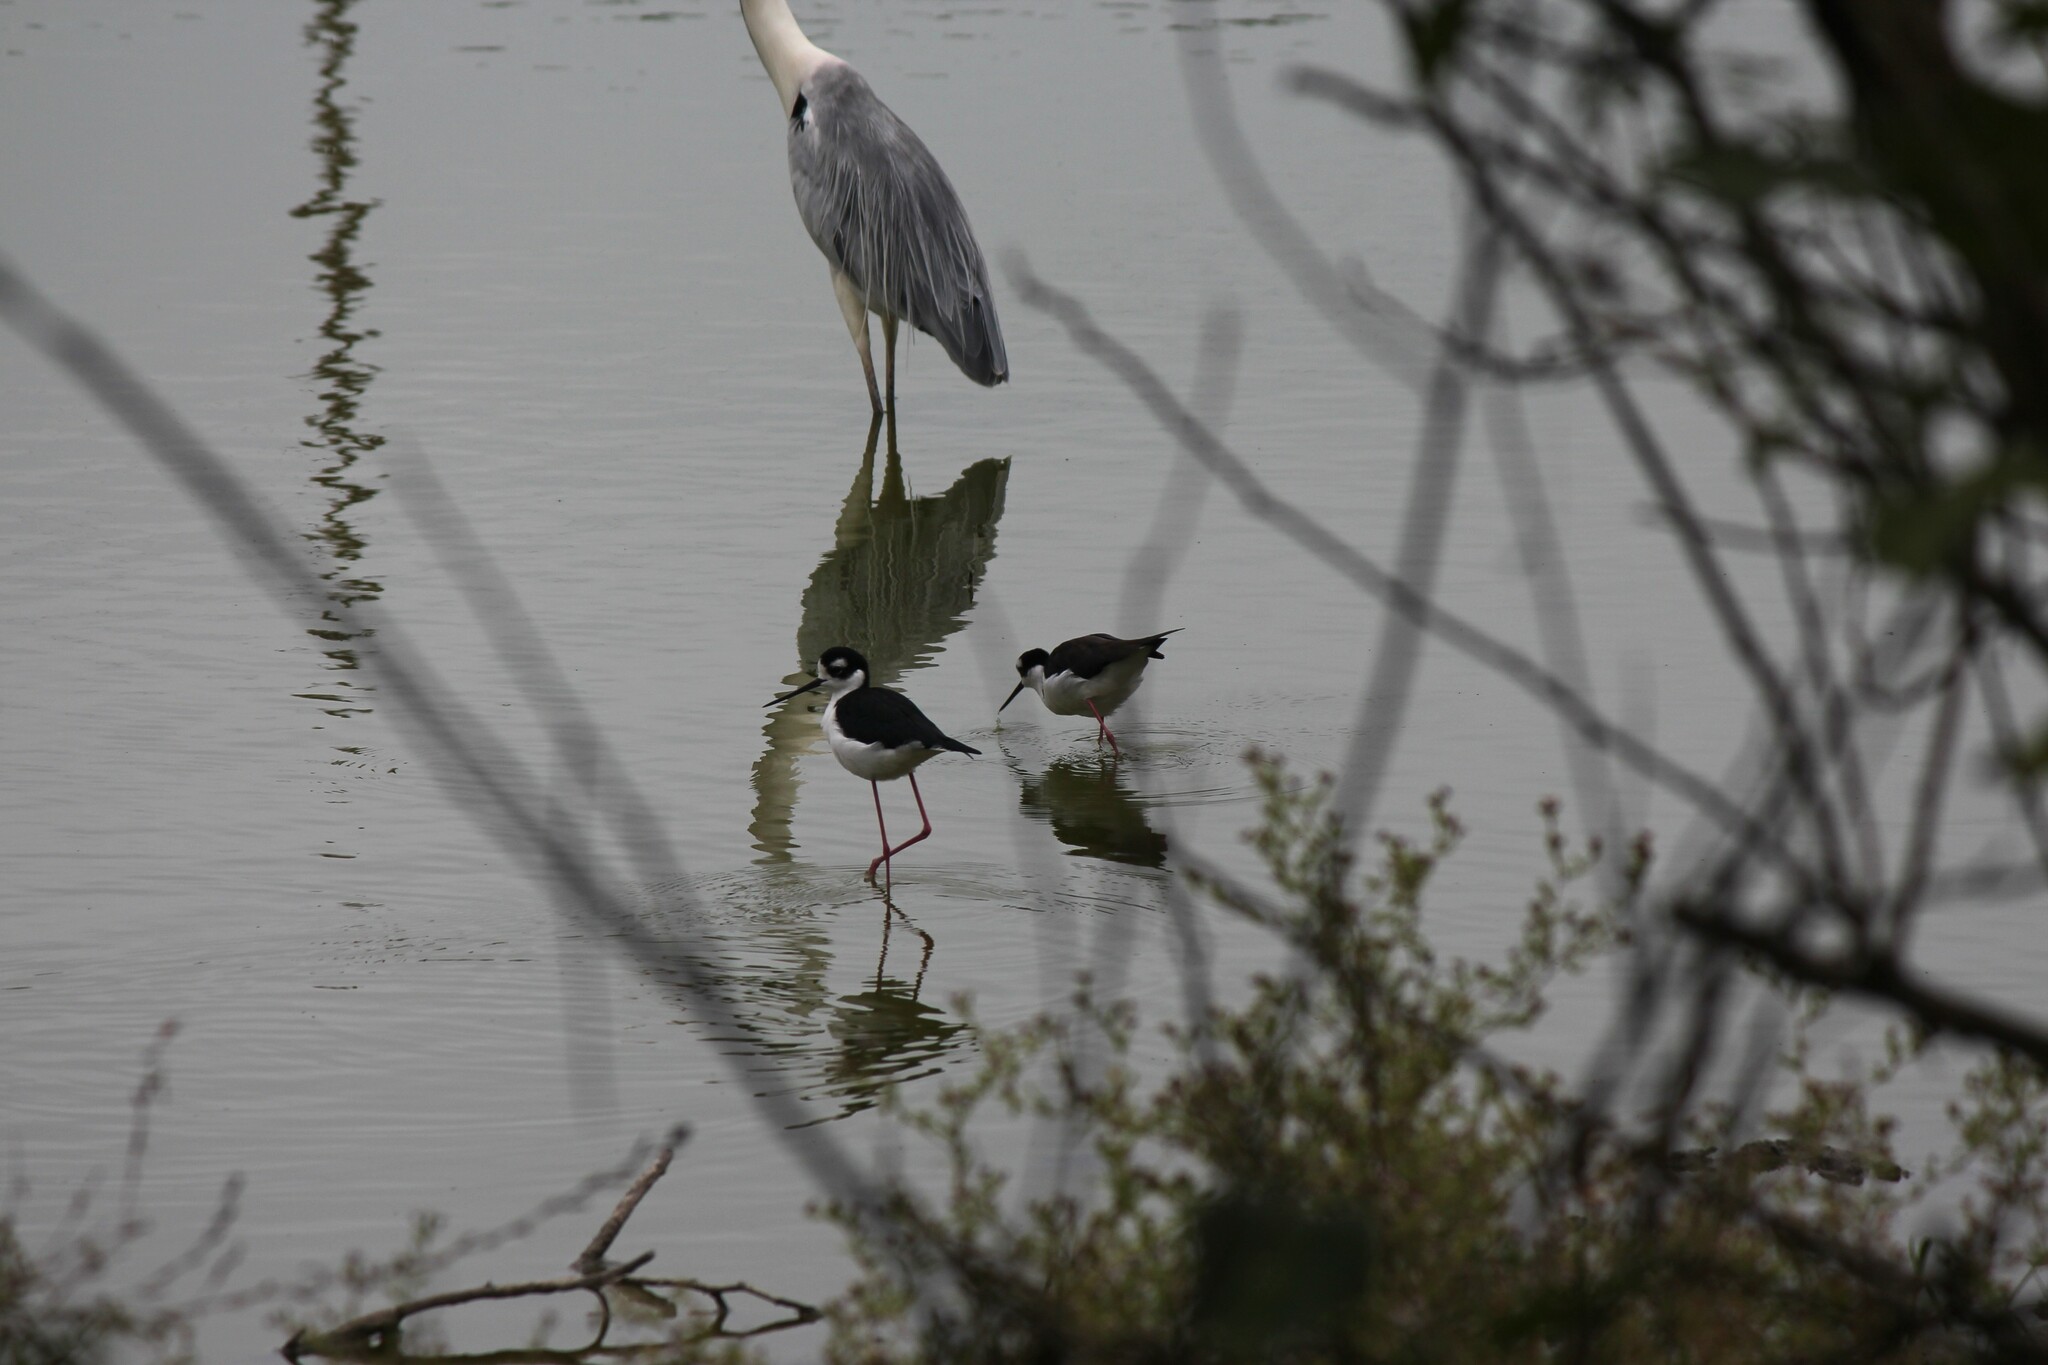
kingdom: Animalia
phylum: Chordata
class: Aves
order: Charadriiformes
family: Recurvirostridae
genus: Himantopus
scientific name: Himantopus mexicanus
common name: Black-necked stilt
